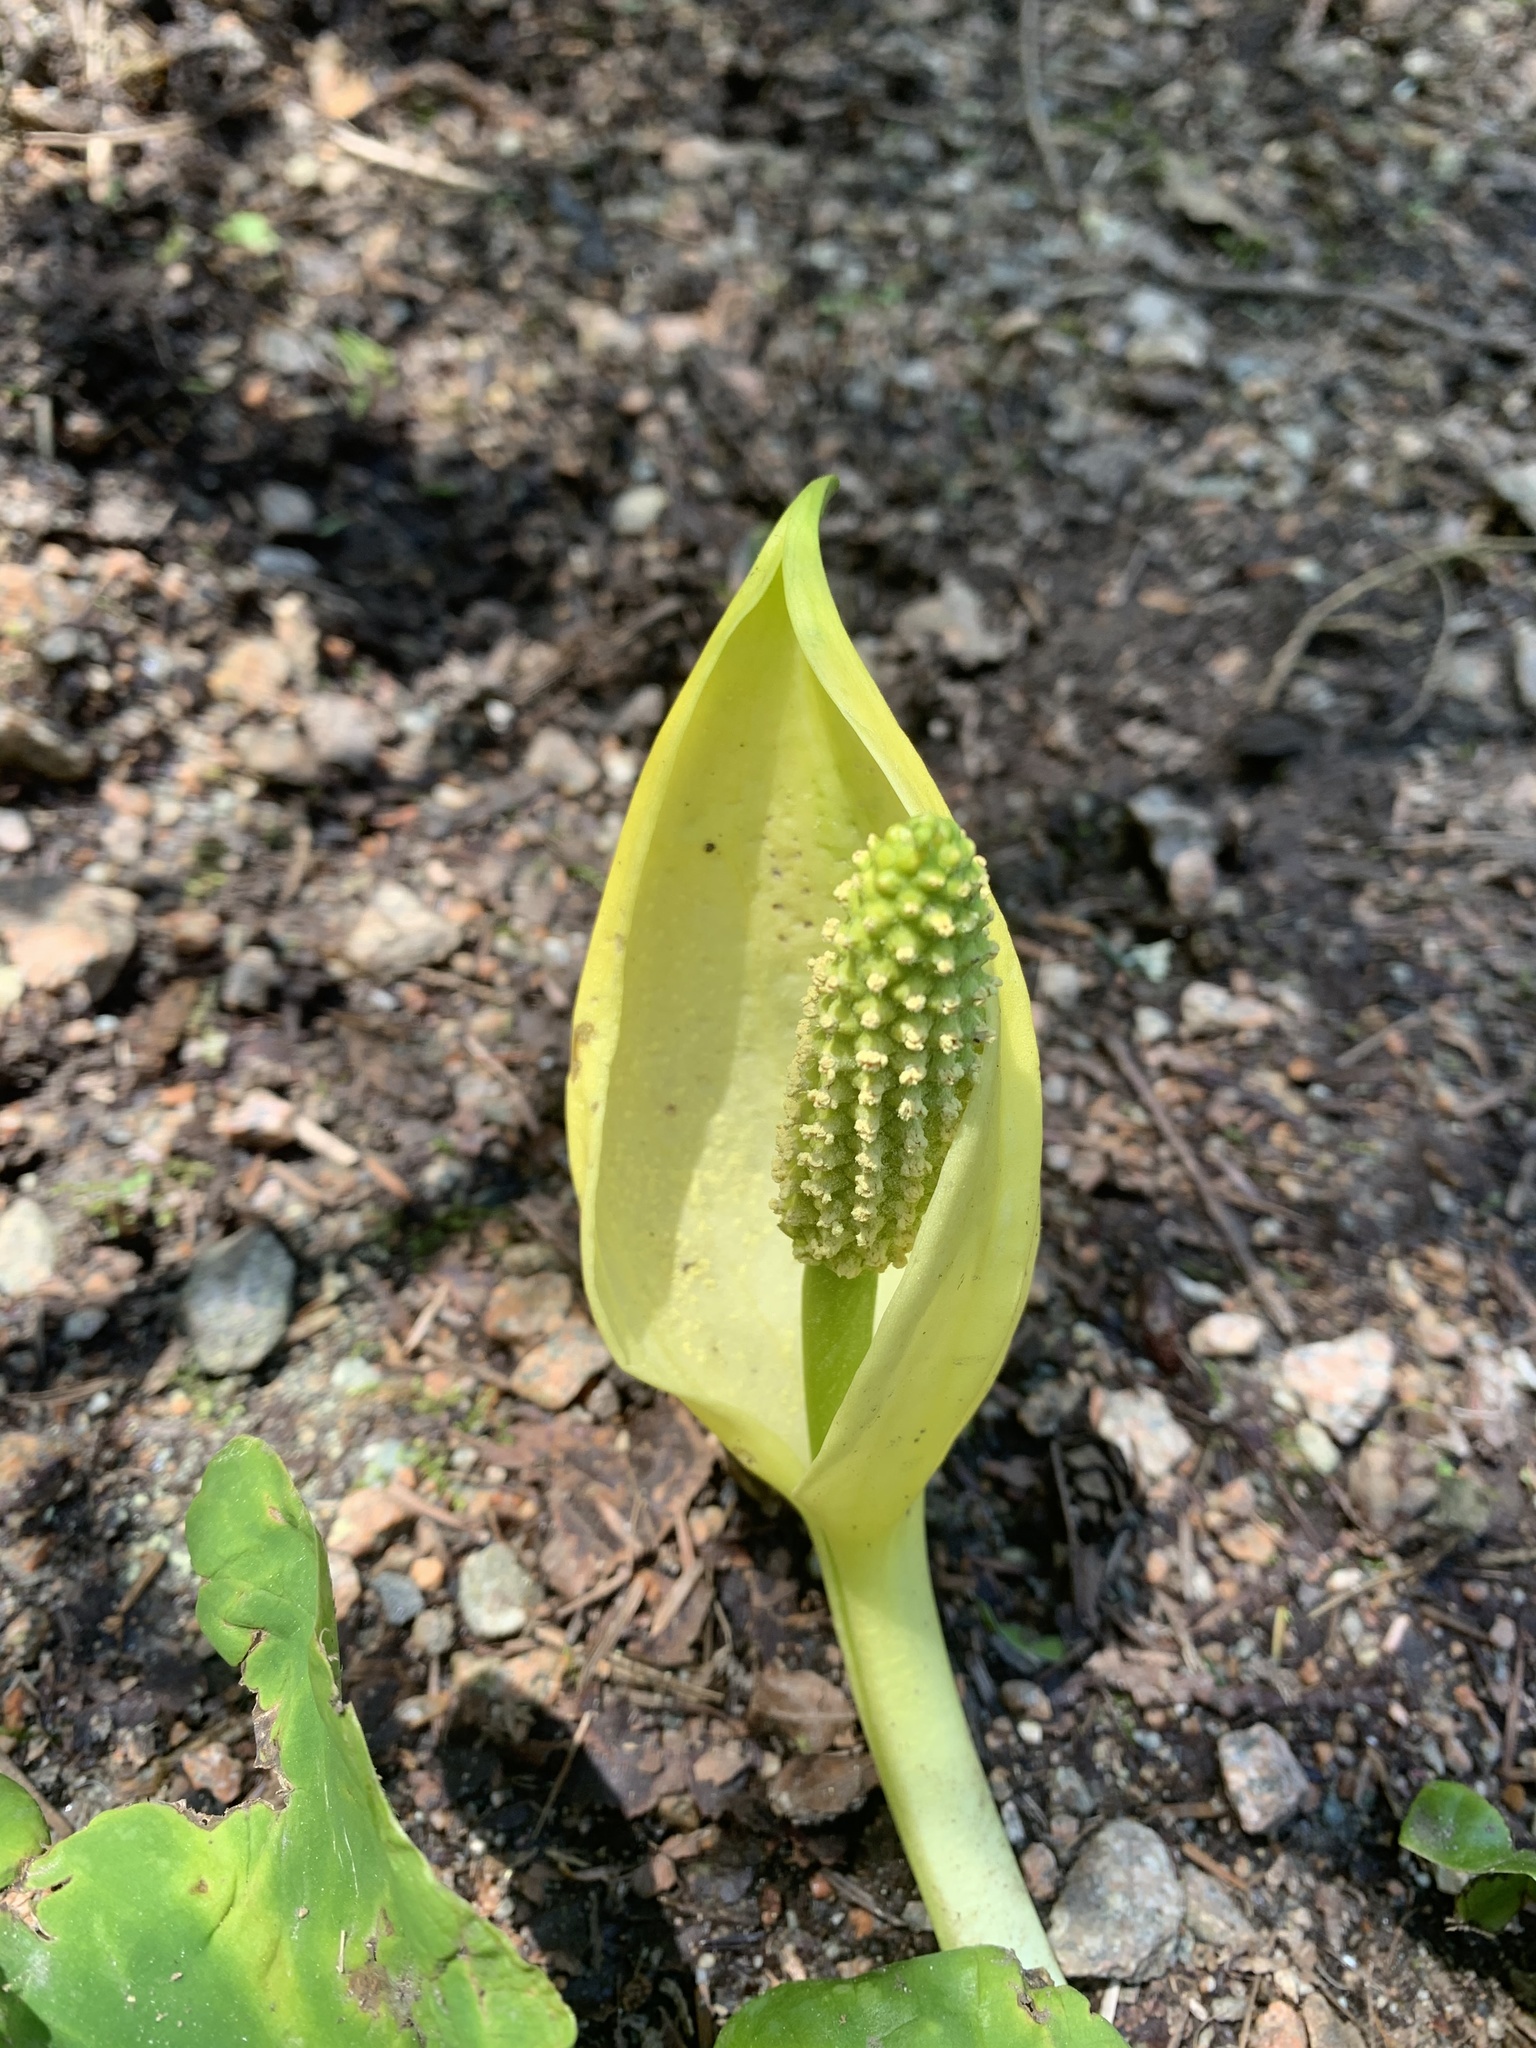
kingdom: Plantae
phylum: Tracheophyta
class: Liliopsida
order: Alismatales
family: Araceae
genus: Lysichiton
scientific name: Lysichiton americanus
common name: American skunk cabbage
